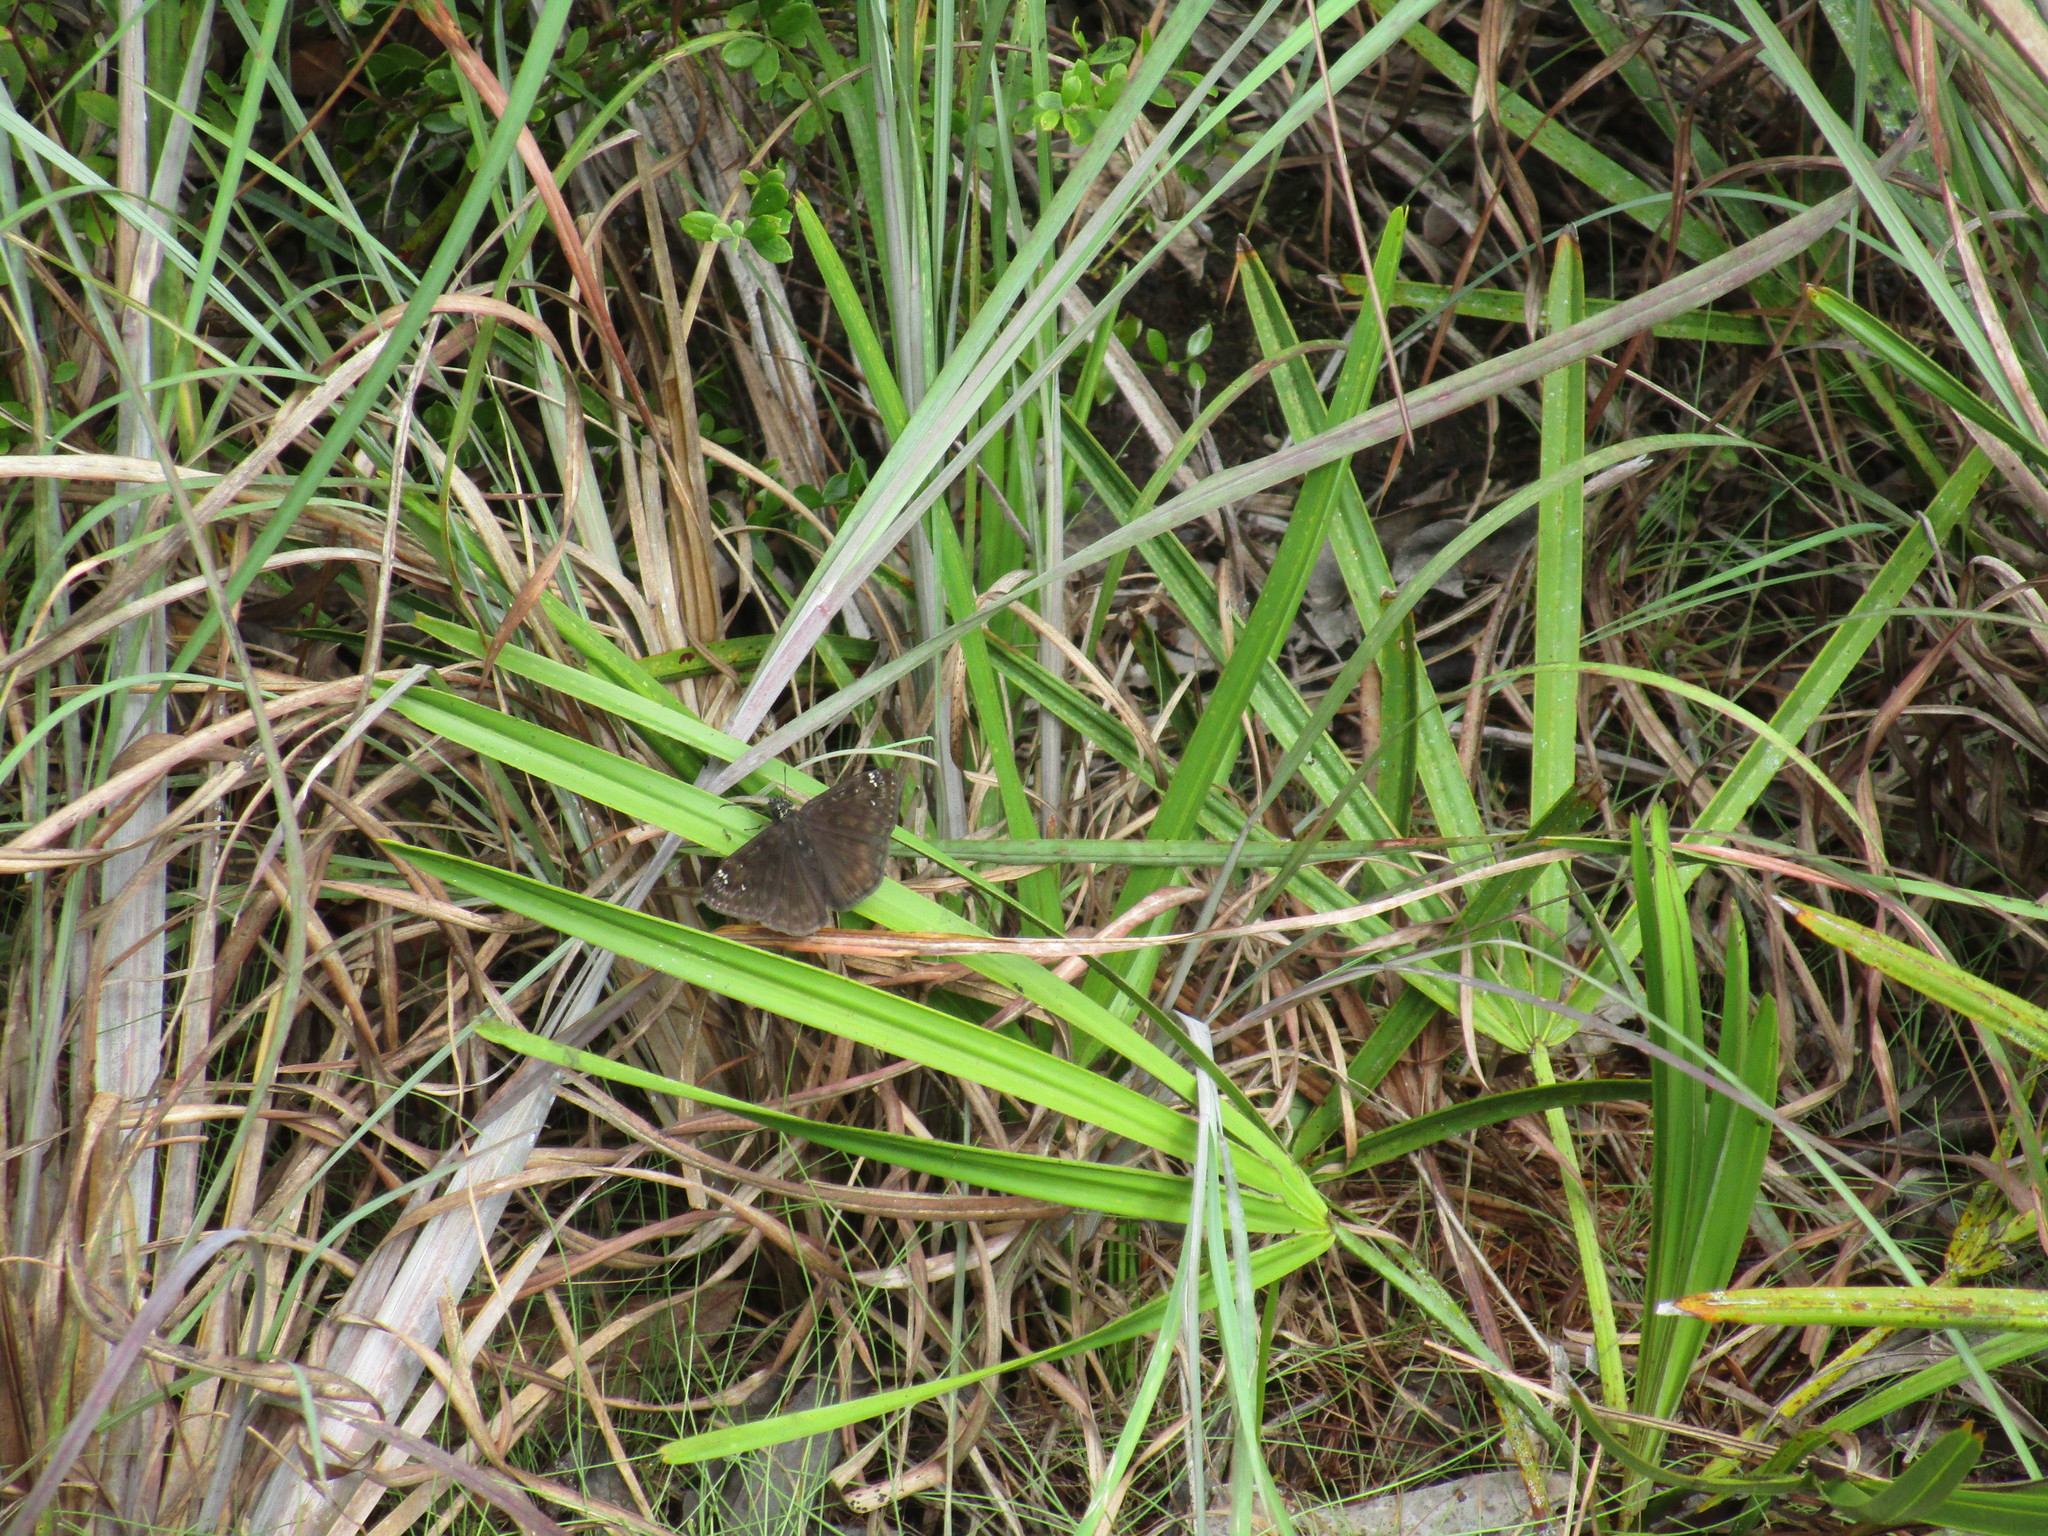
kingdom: Animalia
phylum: Arthropoda
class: Insecta
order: Lepidoptera
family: Hesperiidae
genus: Erynnis
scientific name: Erynnis horatius
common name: Horace's duskywing
